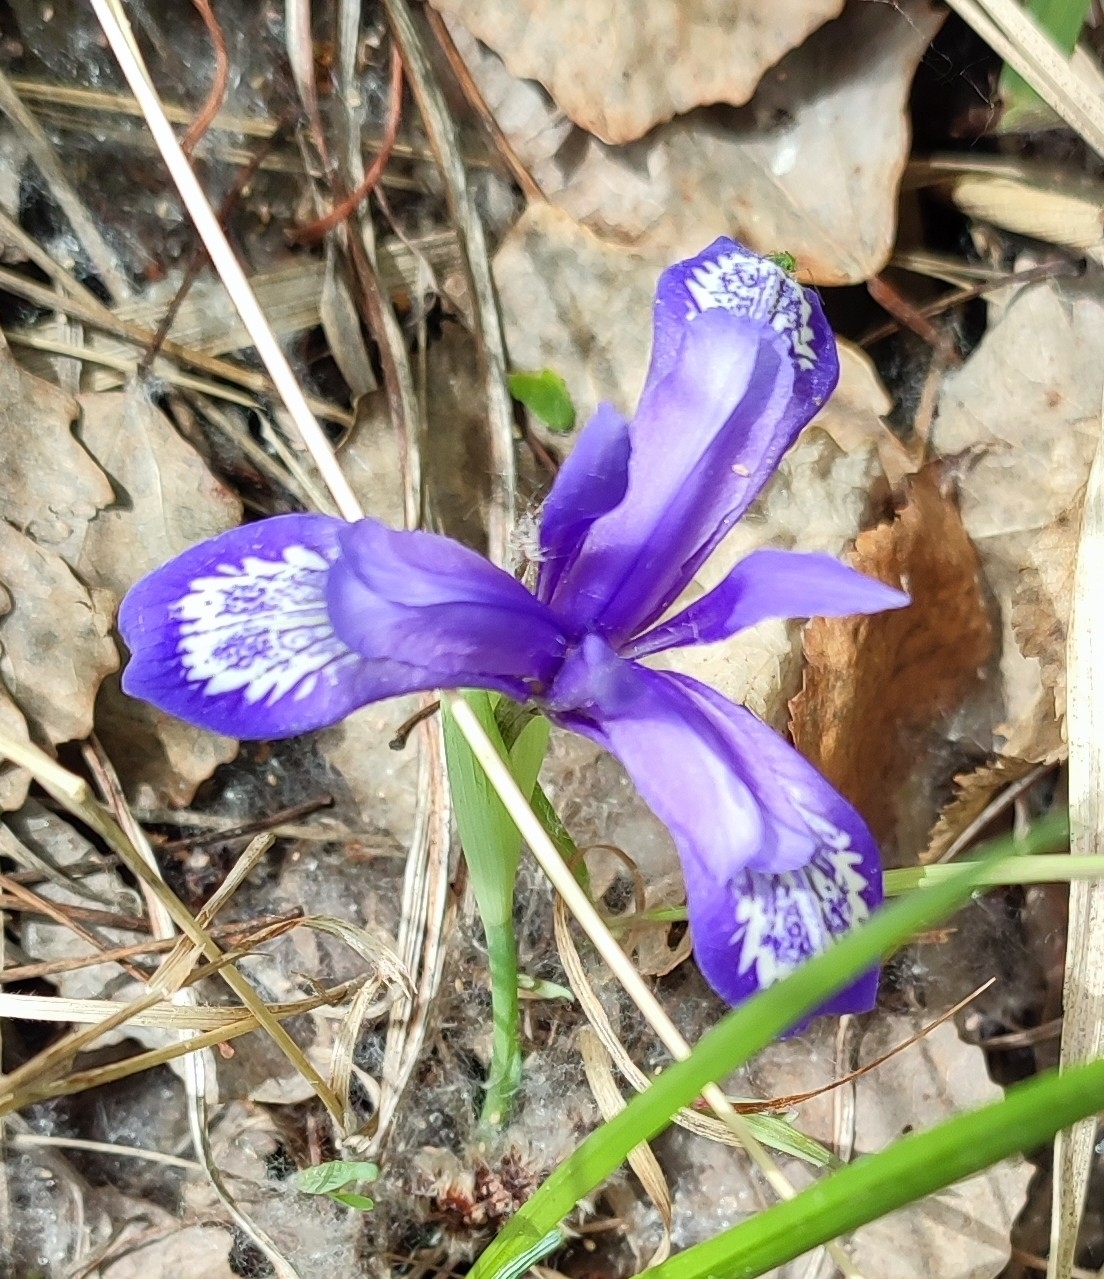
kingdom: Plantae
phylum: Tracheophyta
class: Liliopsida
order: Asparagales
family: Iridaceae
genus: Iris
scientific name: Iris ruthenica
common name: Purple-bract iris
